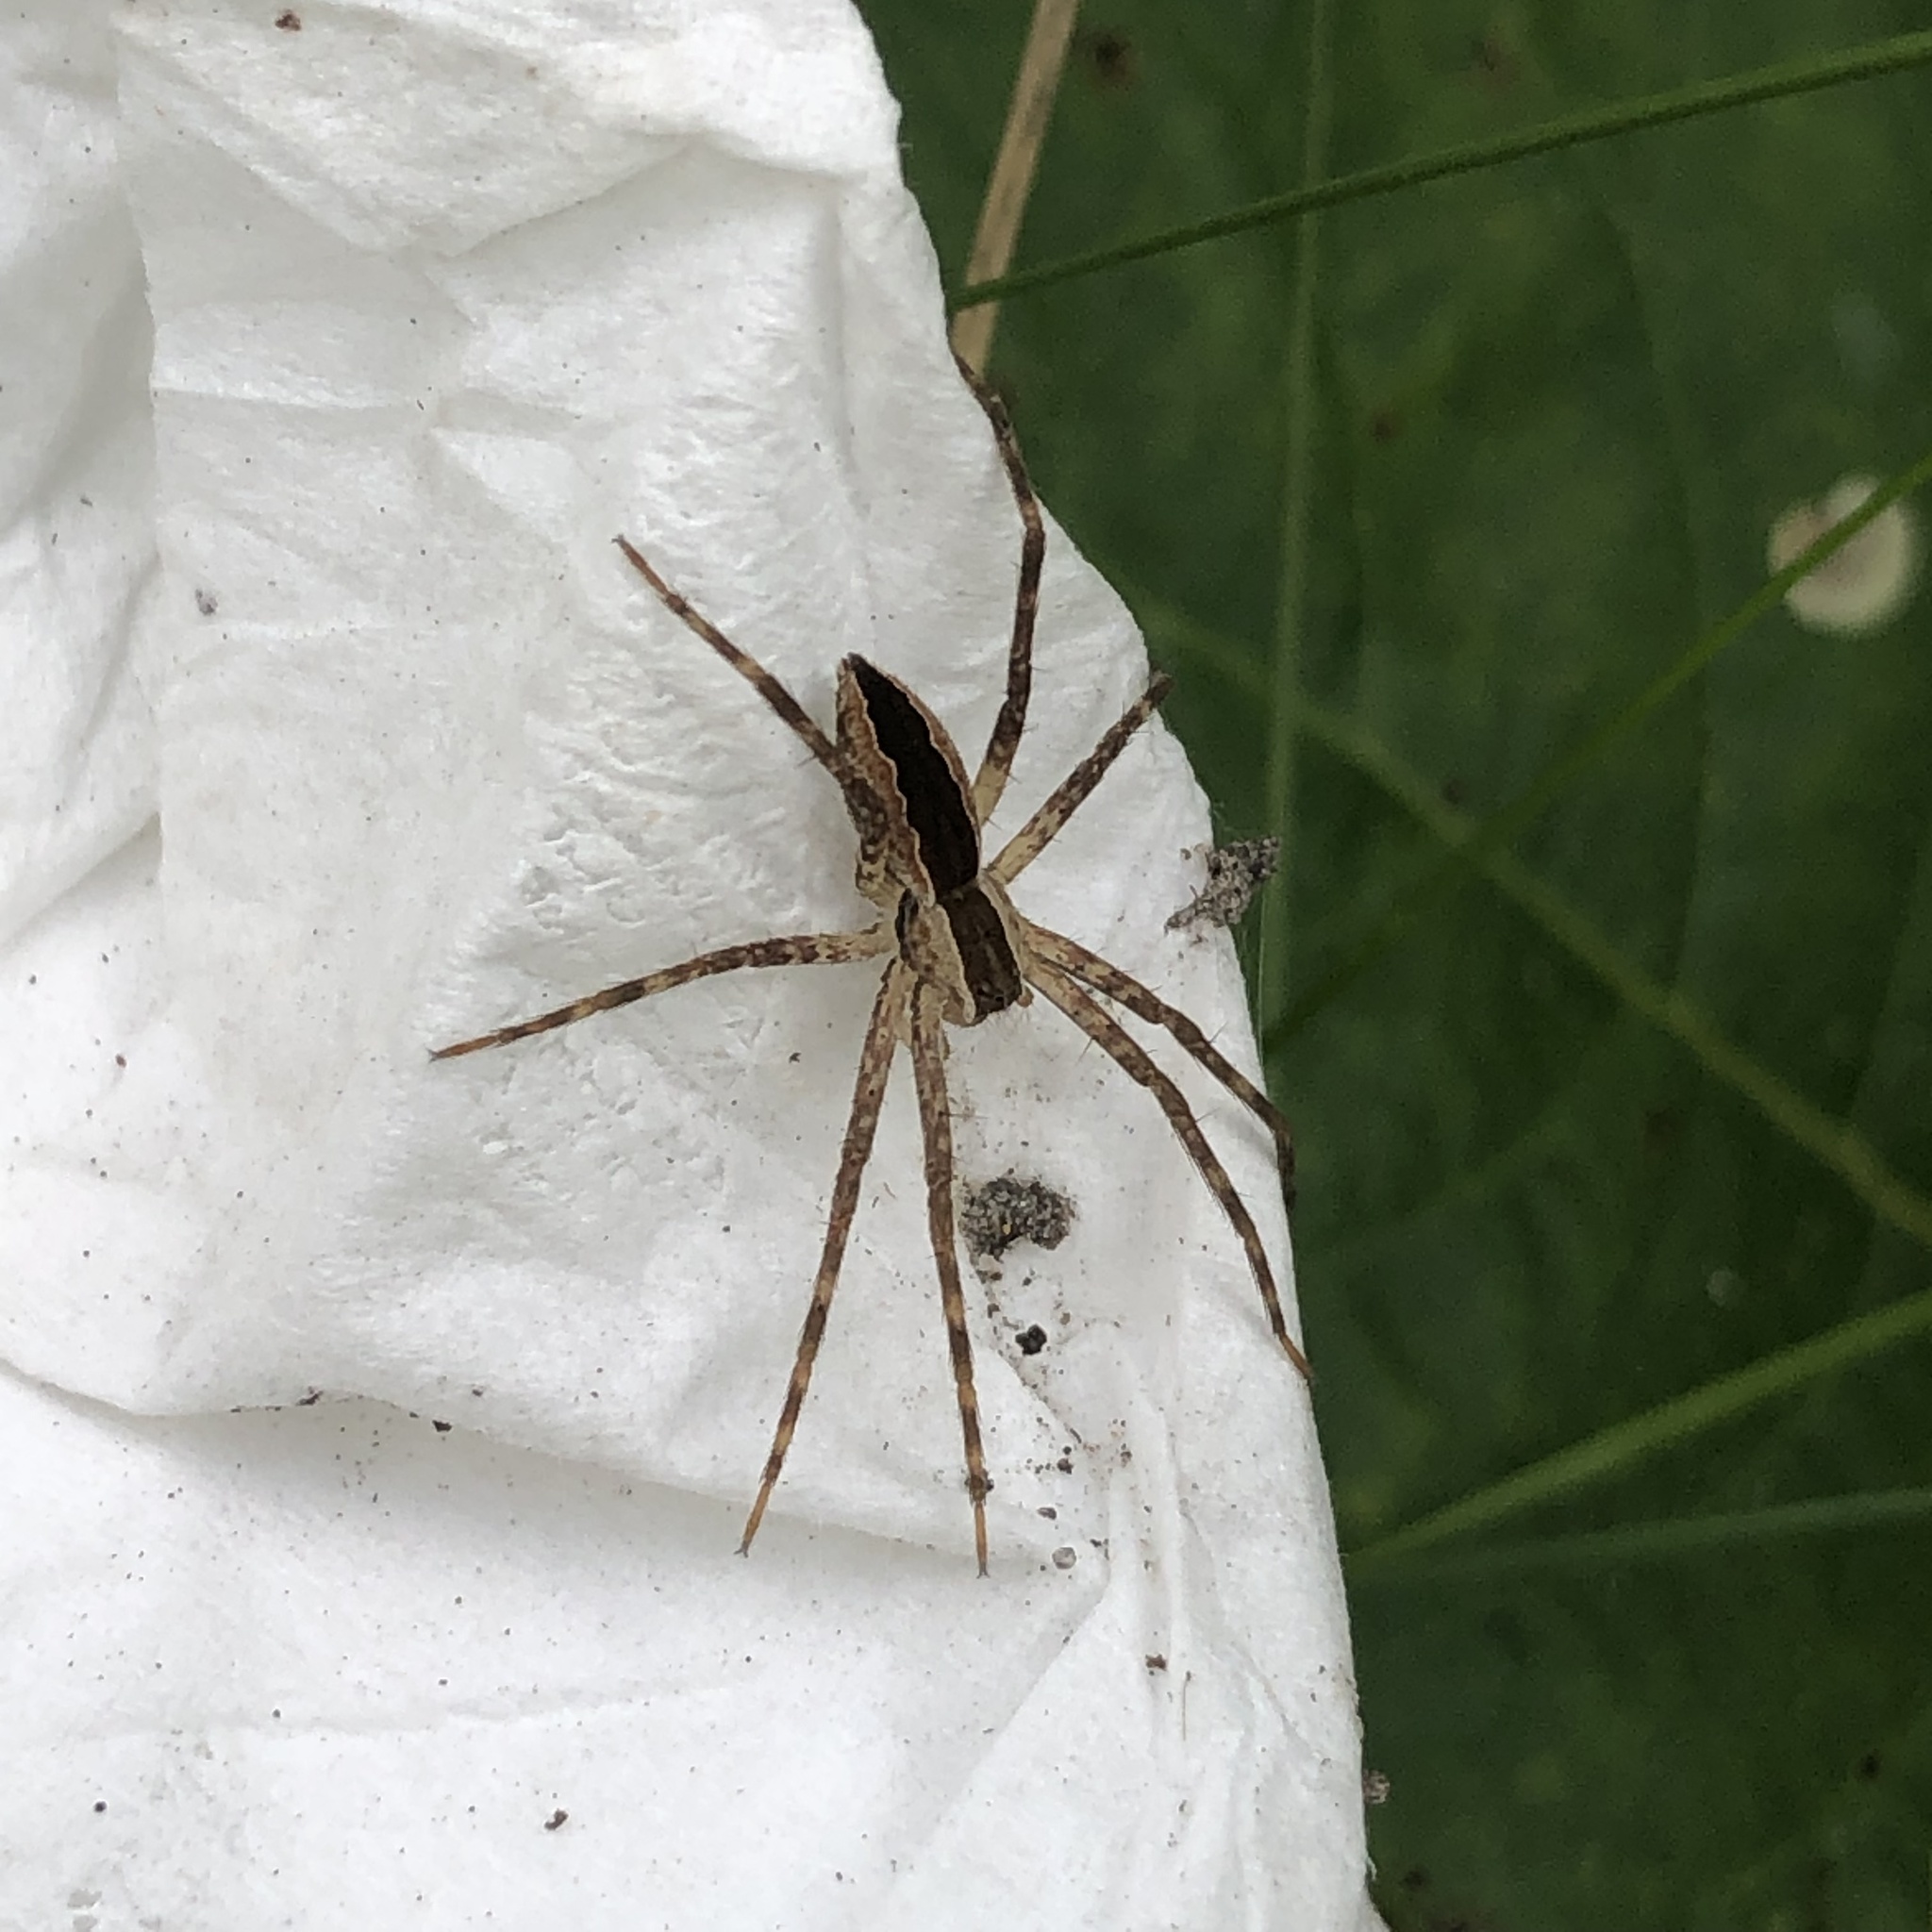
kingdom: Animalia
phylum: Arthropoda
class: Arachnida
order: Araneae
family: Pisauridae
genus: Pisaurina
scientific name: Pisaurina mira
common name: American nursery web spider
